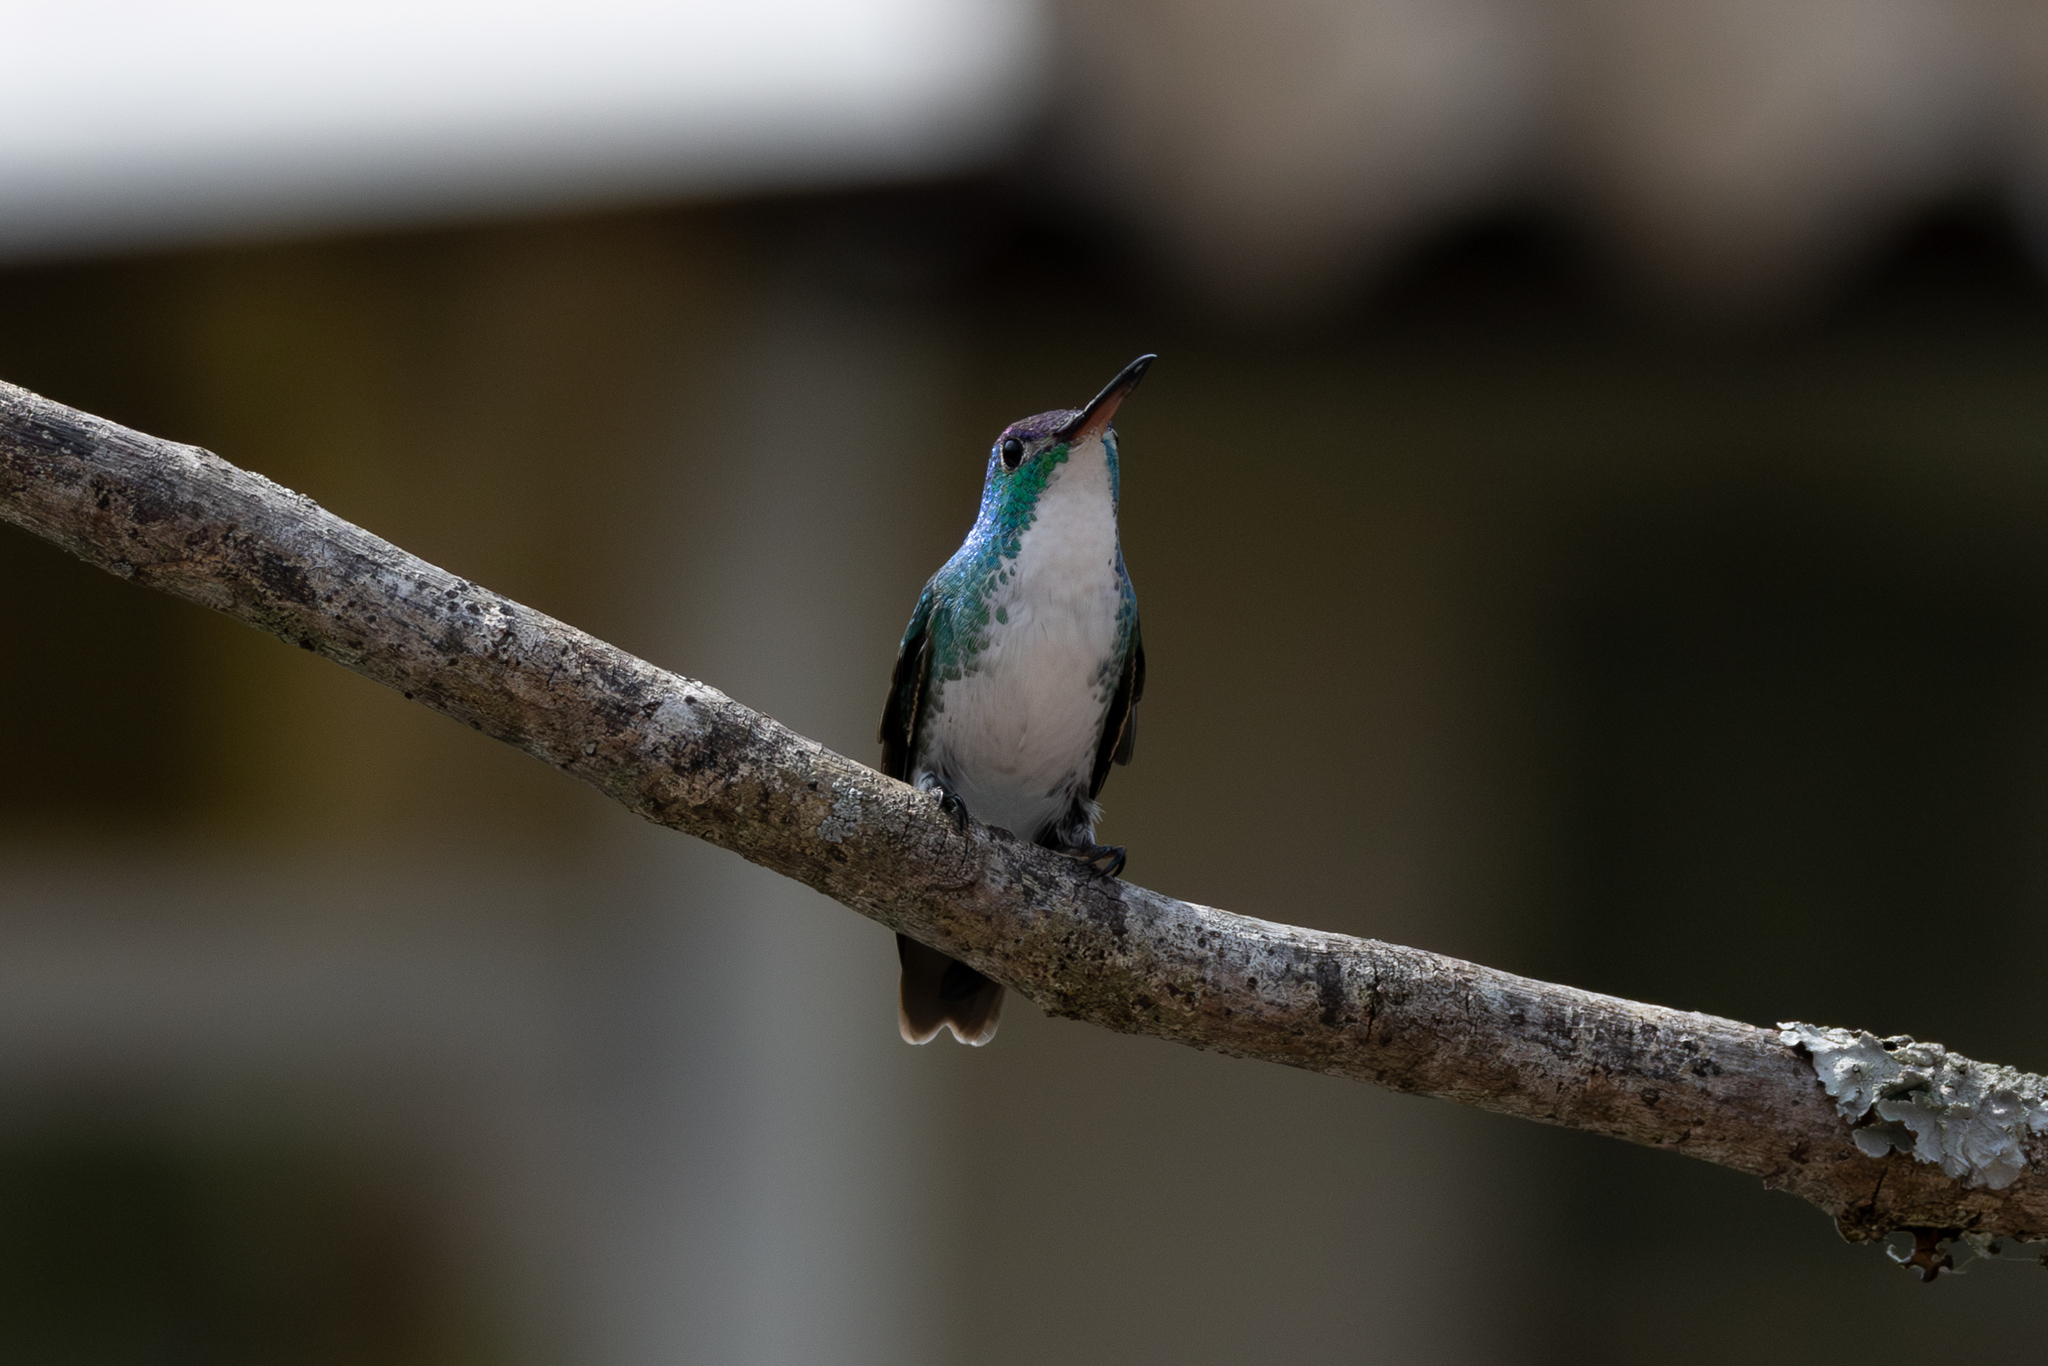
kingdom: Animalia
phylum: Chordata
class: Aves
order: Apodiformes
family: Trochilidae
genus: Uranomitra
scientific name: Uranomitra franciae
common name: Andean emerald
